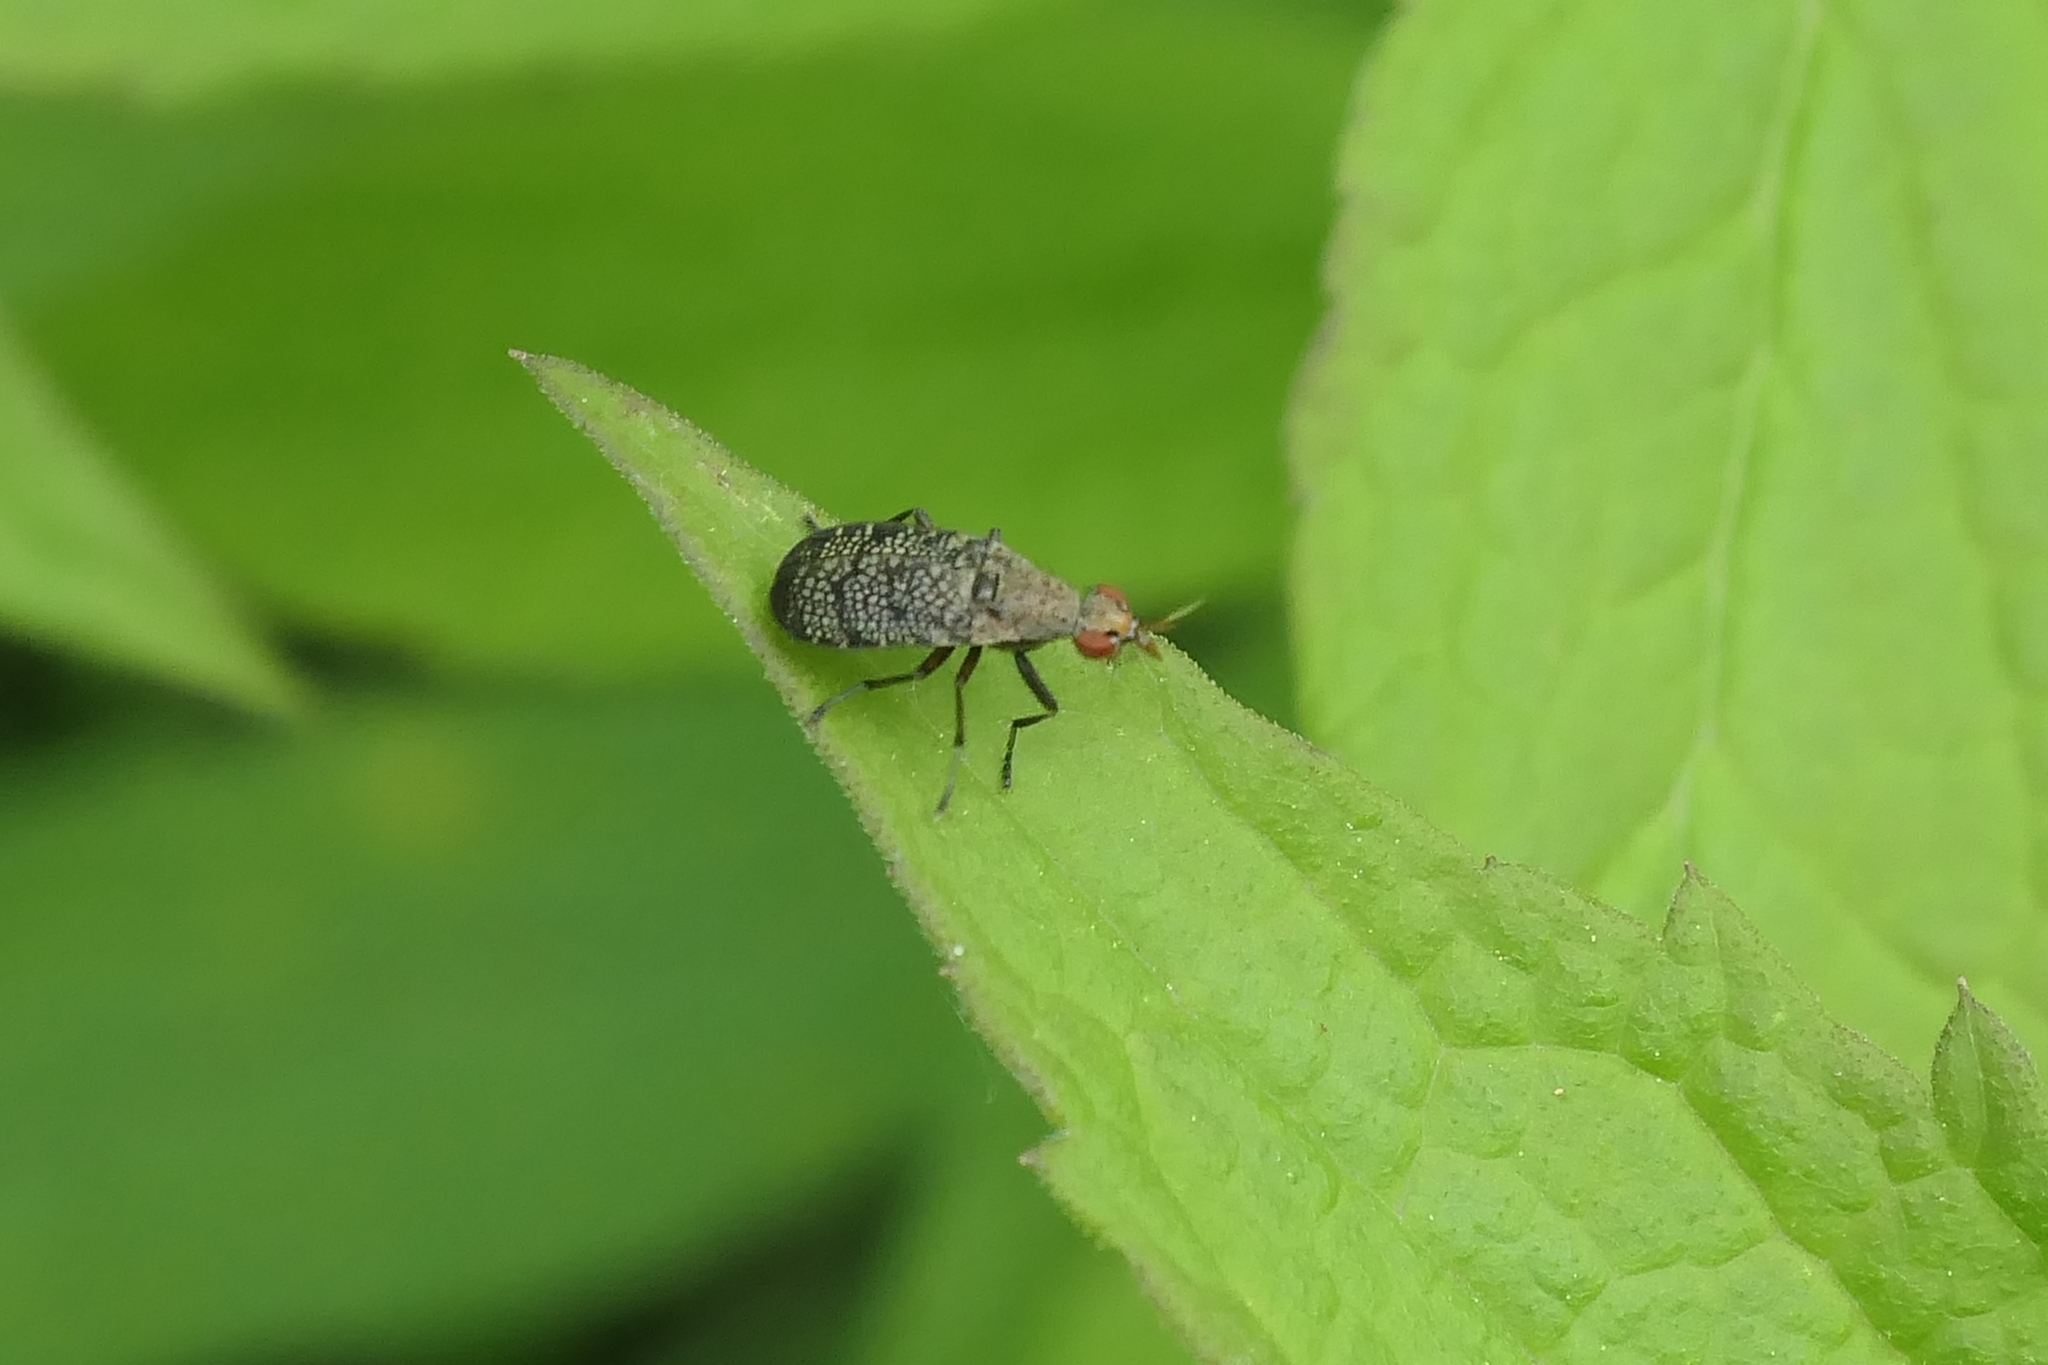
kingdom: Animalia
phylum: Arthropoda
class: Insecta
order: Diptera
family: Sciomyzidae
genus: Euthycera
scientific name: Euthycera flavescens
